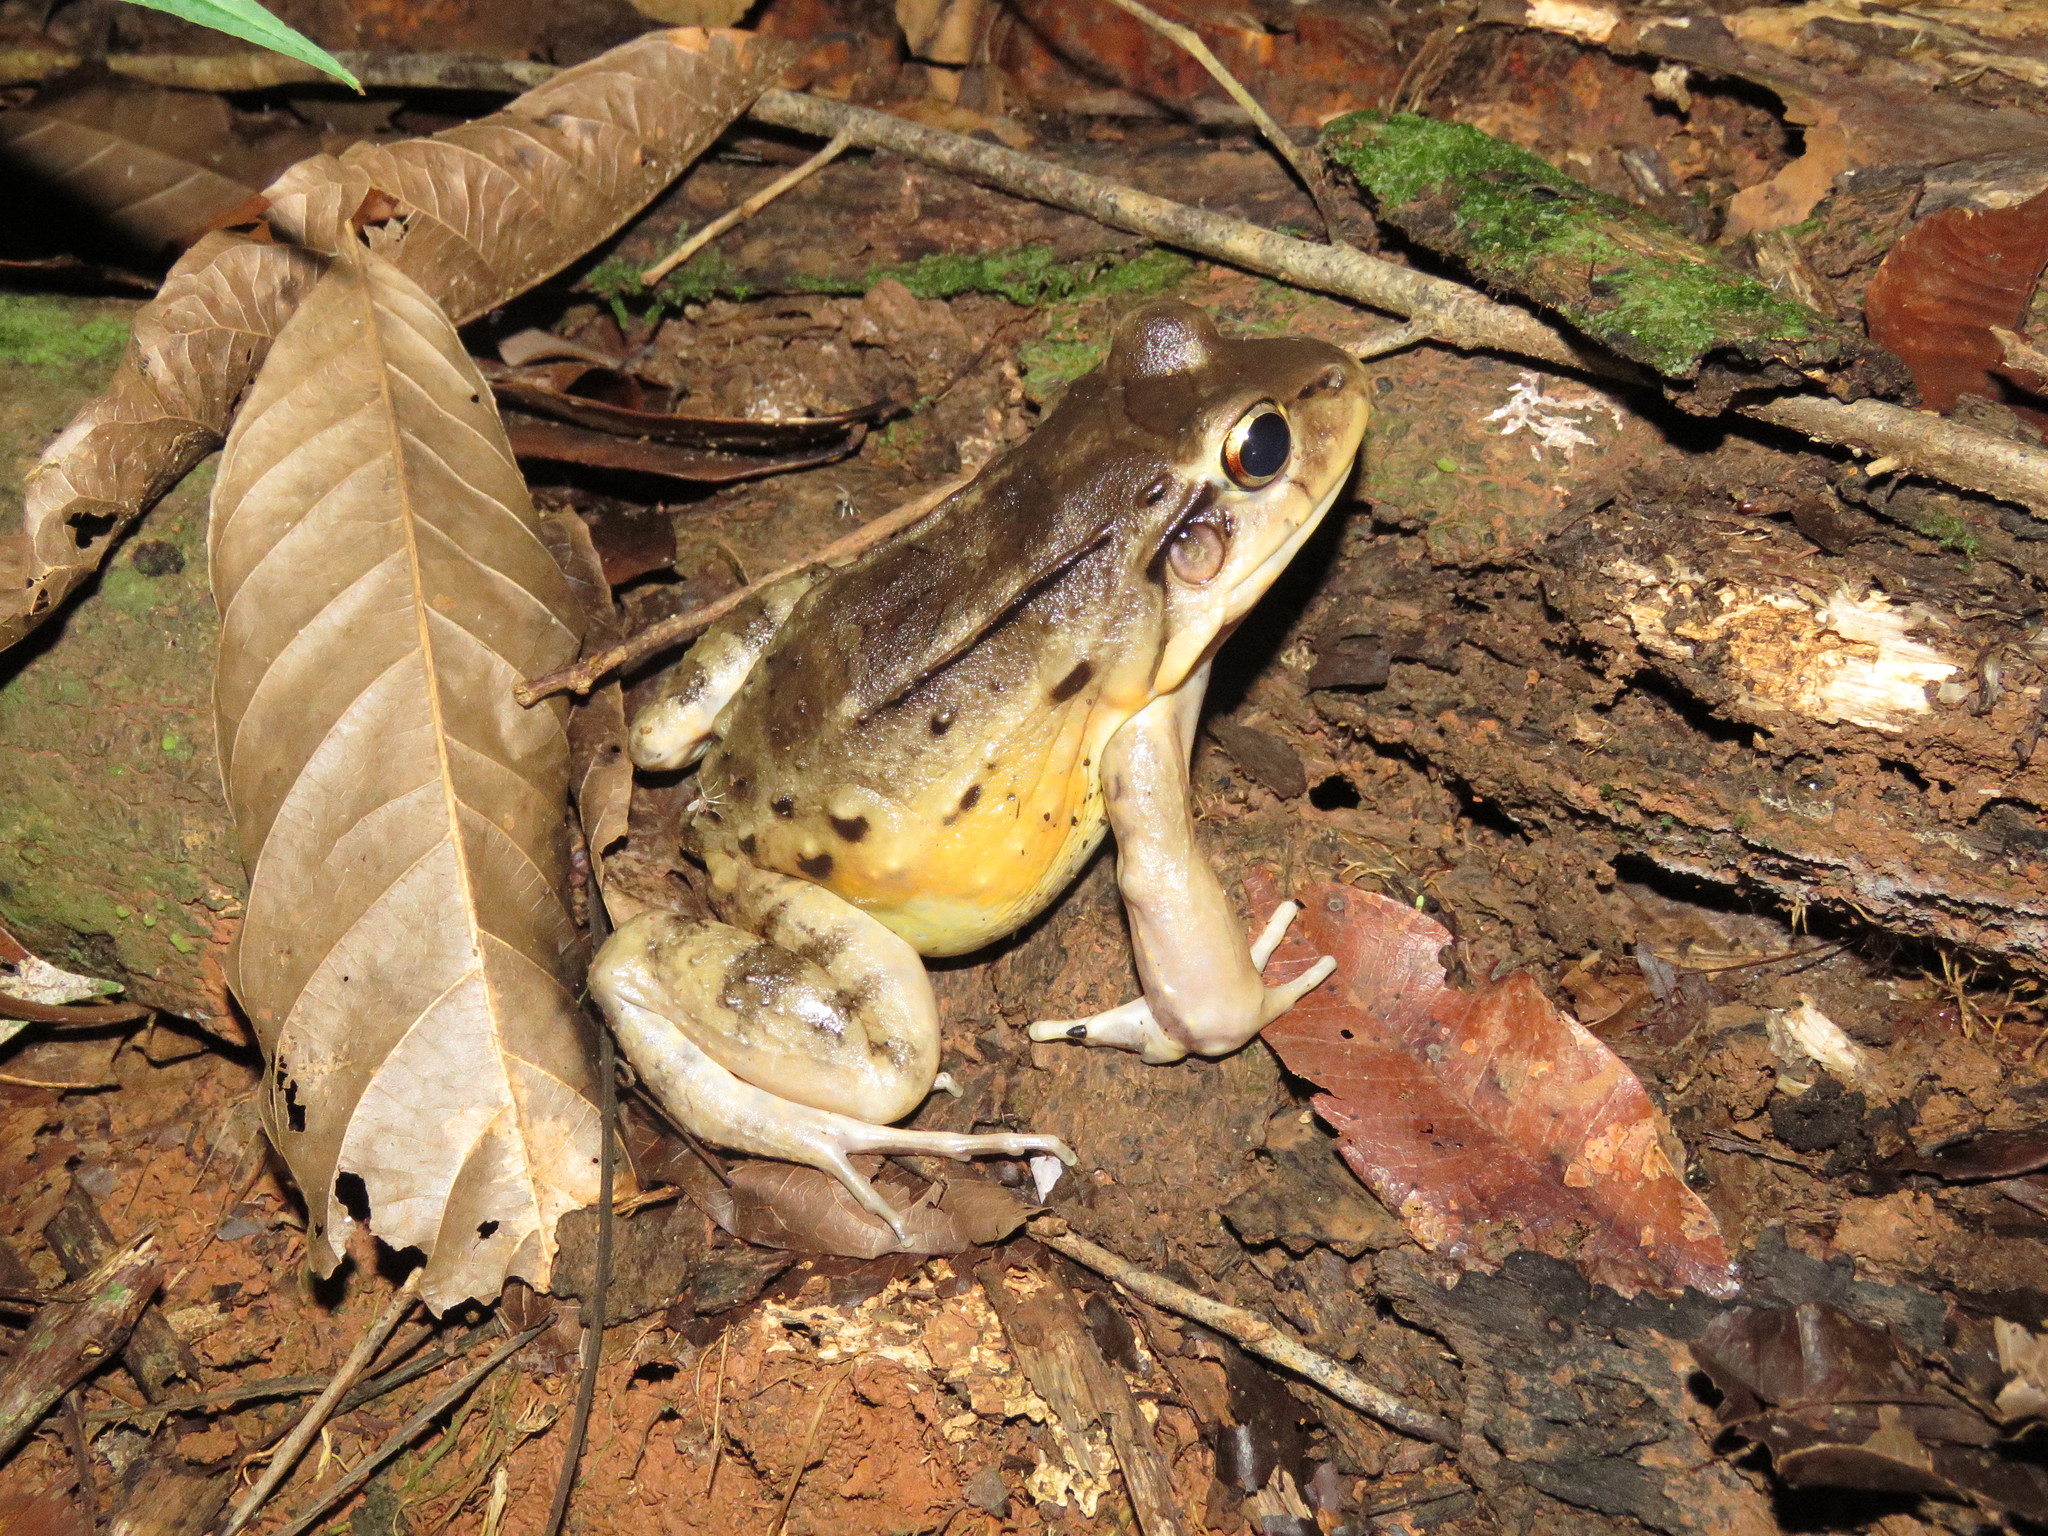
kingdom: Animalia
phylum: Chordata
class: Amphibia
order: Anura
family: Leptodactylidae
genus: Leptodactylus
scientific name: Leptodactylus knudseni
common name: Knudsen's frog
